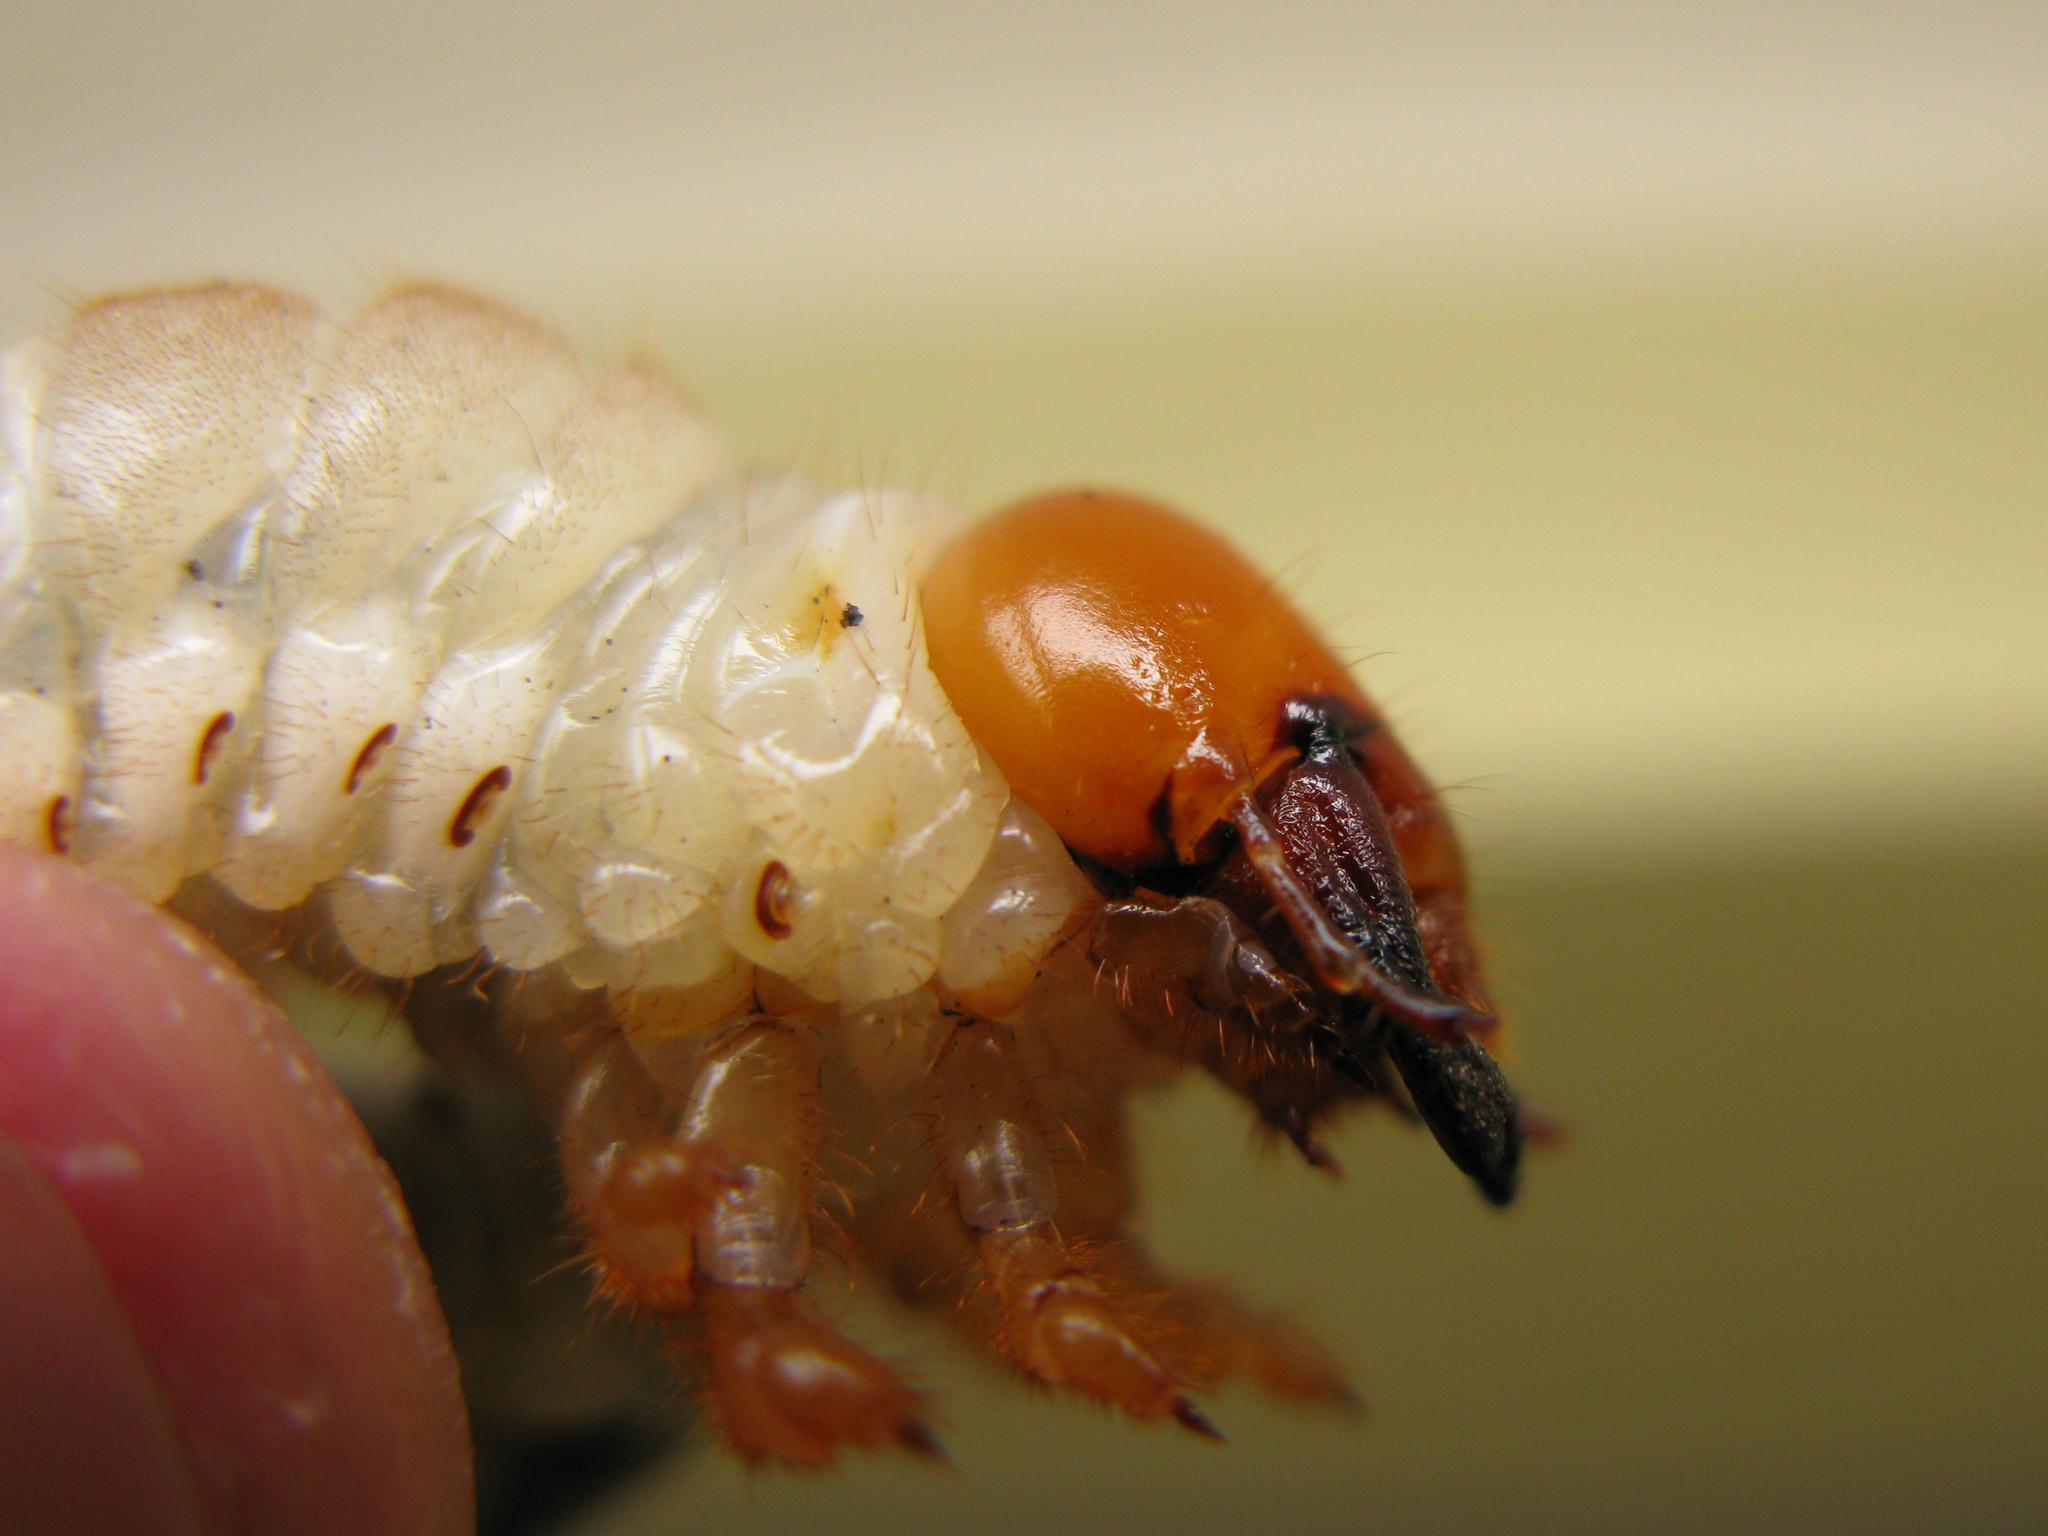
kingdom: Animalia
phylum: Arthropoda
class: Insecta
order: Coleoptera
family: Lucanidae
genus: Lucanus
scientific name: Lucanus cervus
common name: Stag beetle
